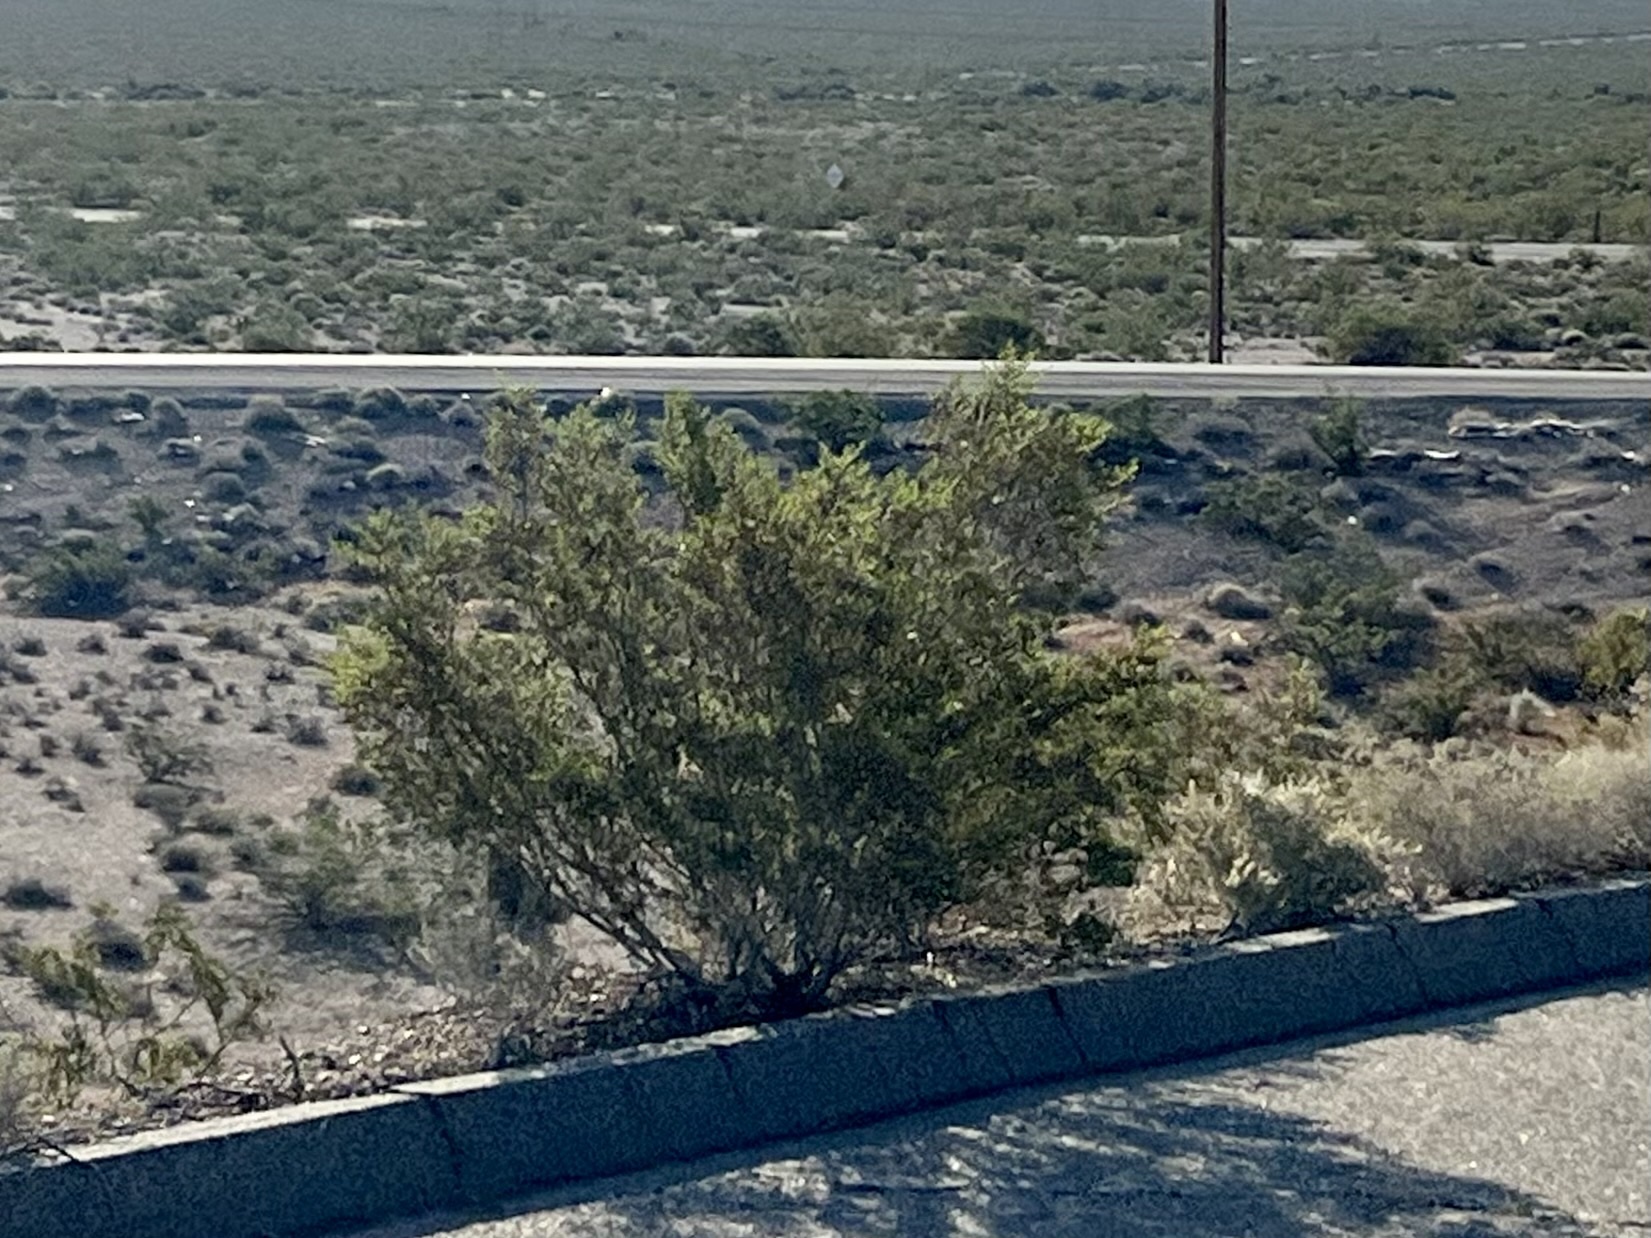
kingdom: Plantae
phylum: Tracheophyta
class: Magnoliopsida
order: Zygophyllales
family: Zygophyllaceae
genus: Larrea
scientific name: Larrea tridentata
